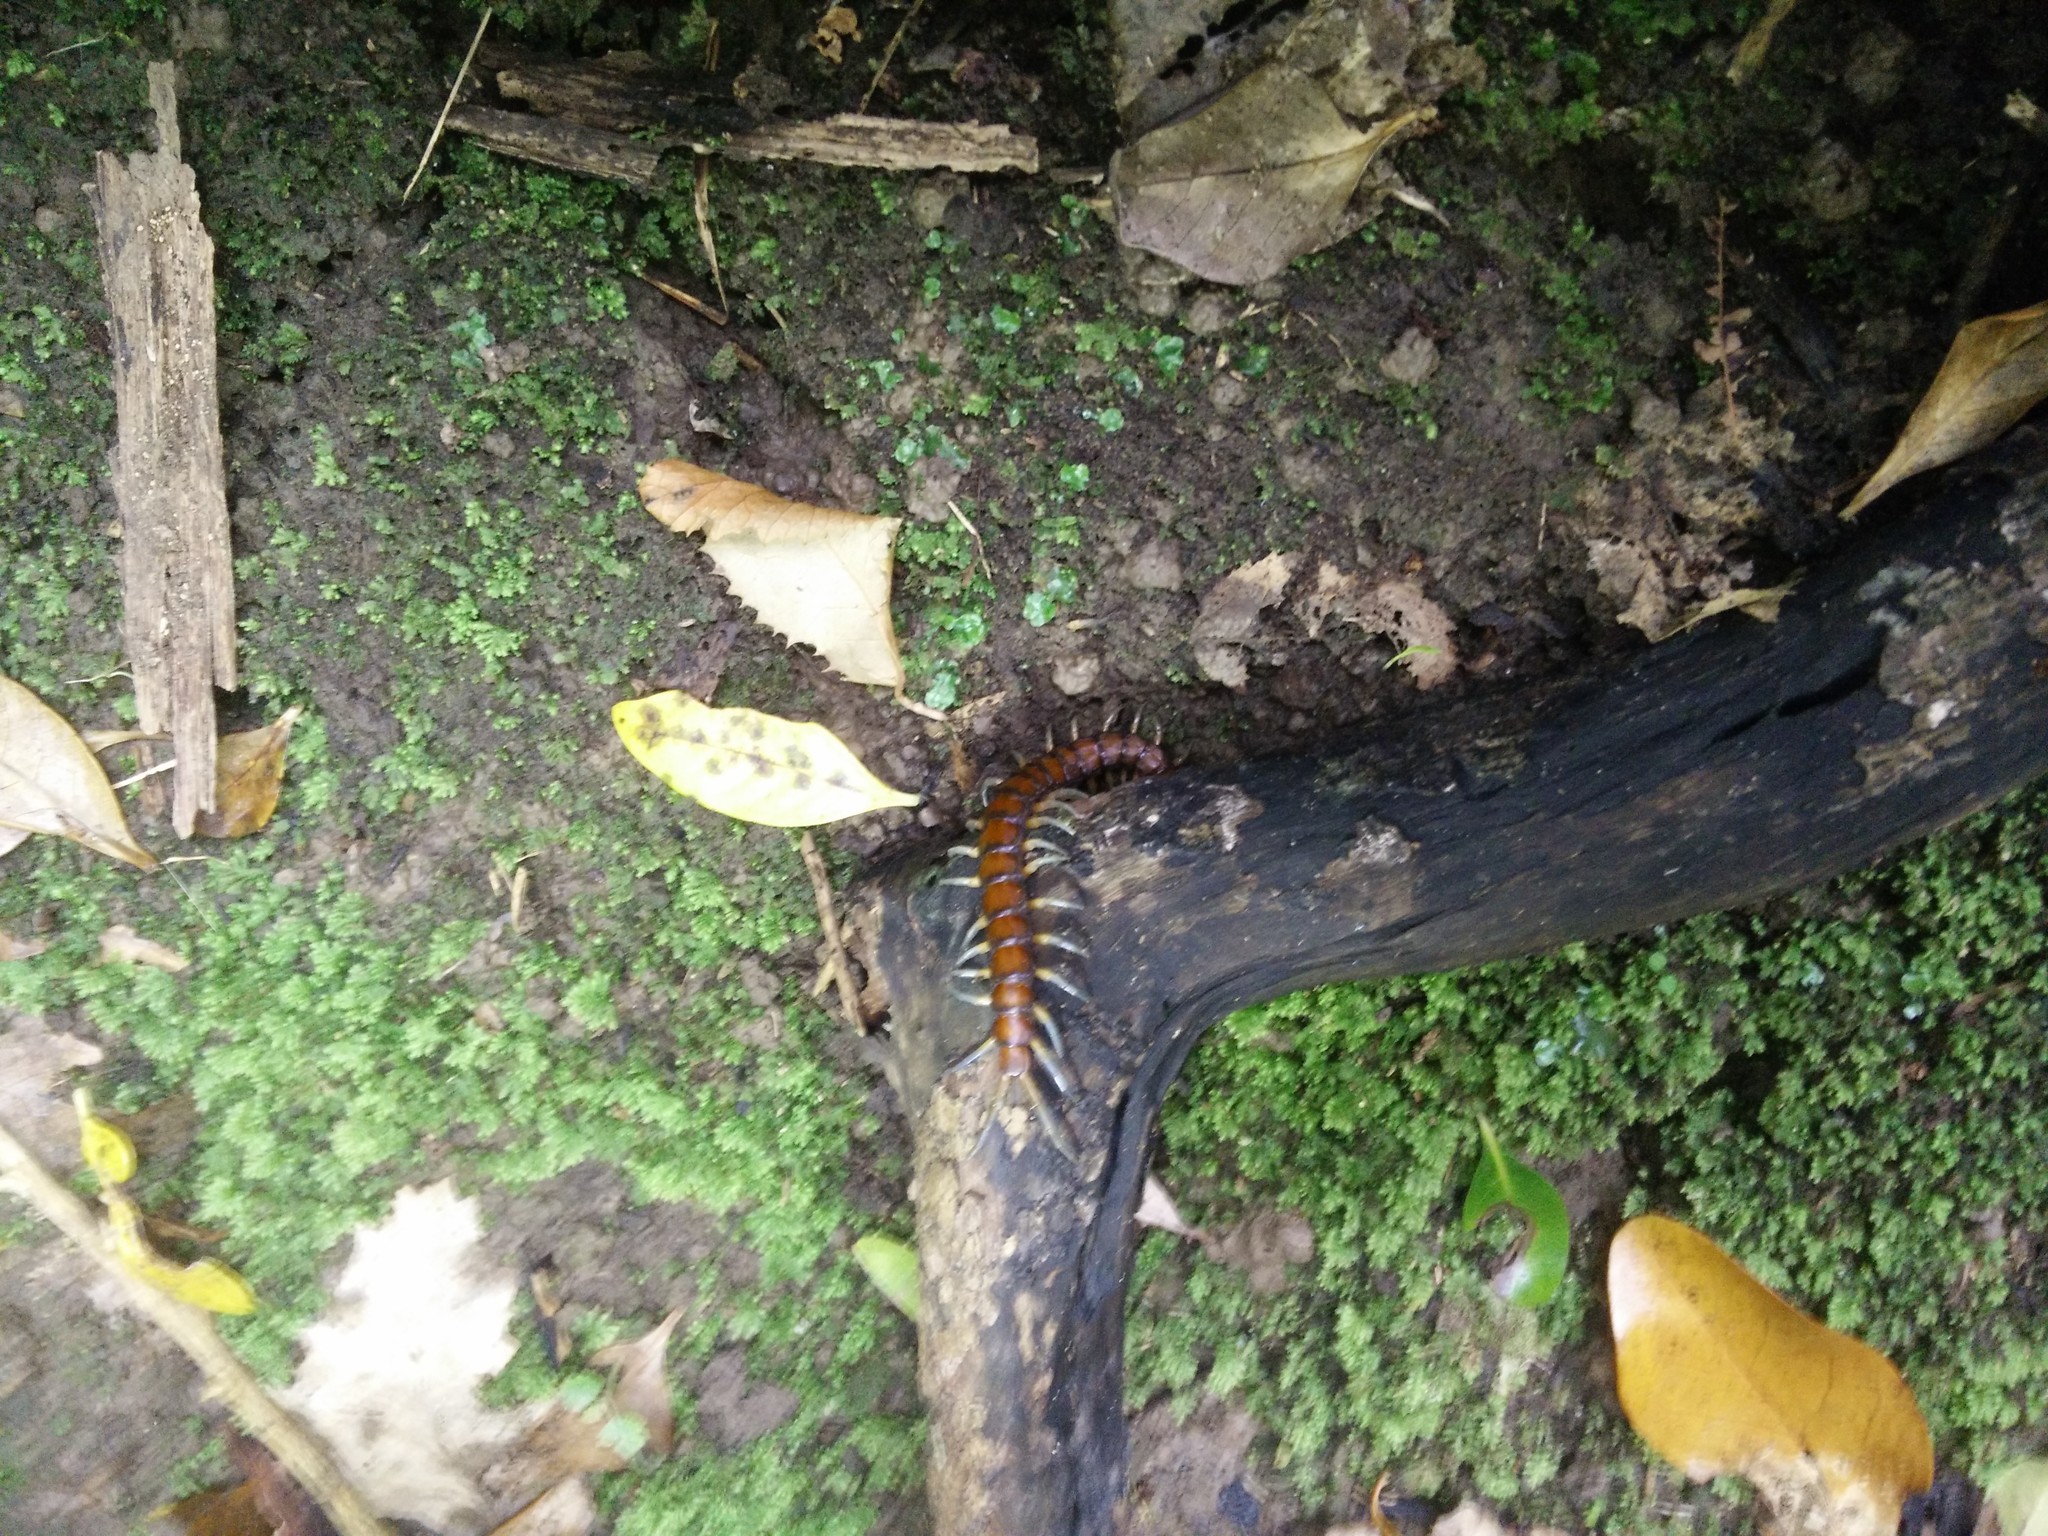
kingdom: Animalia
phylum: Arthropoda
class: Chilopoda
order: Scolopendromorpha
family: Scolopendridae
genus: Cormocephalus
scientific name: Cormocephalus rubriceps
